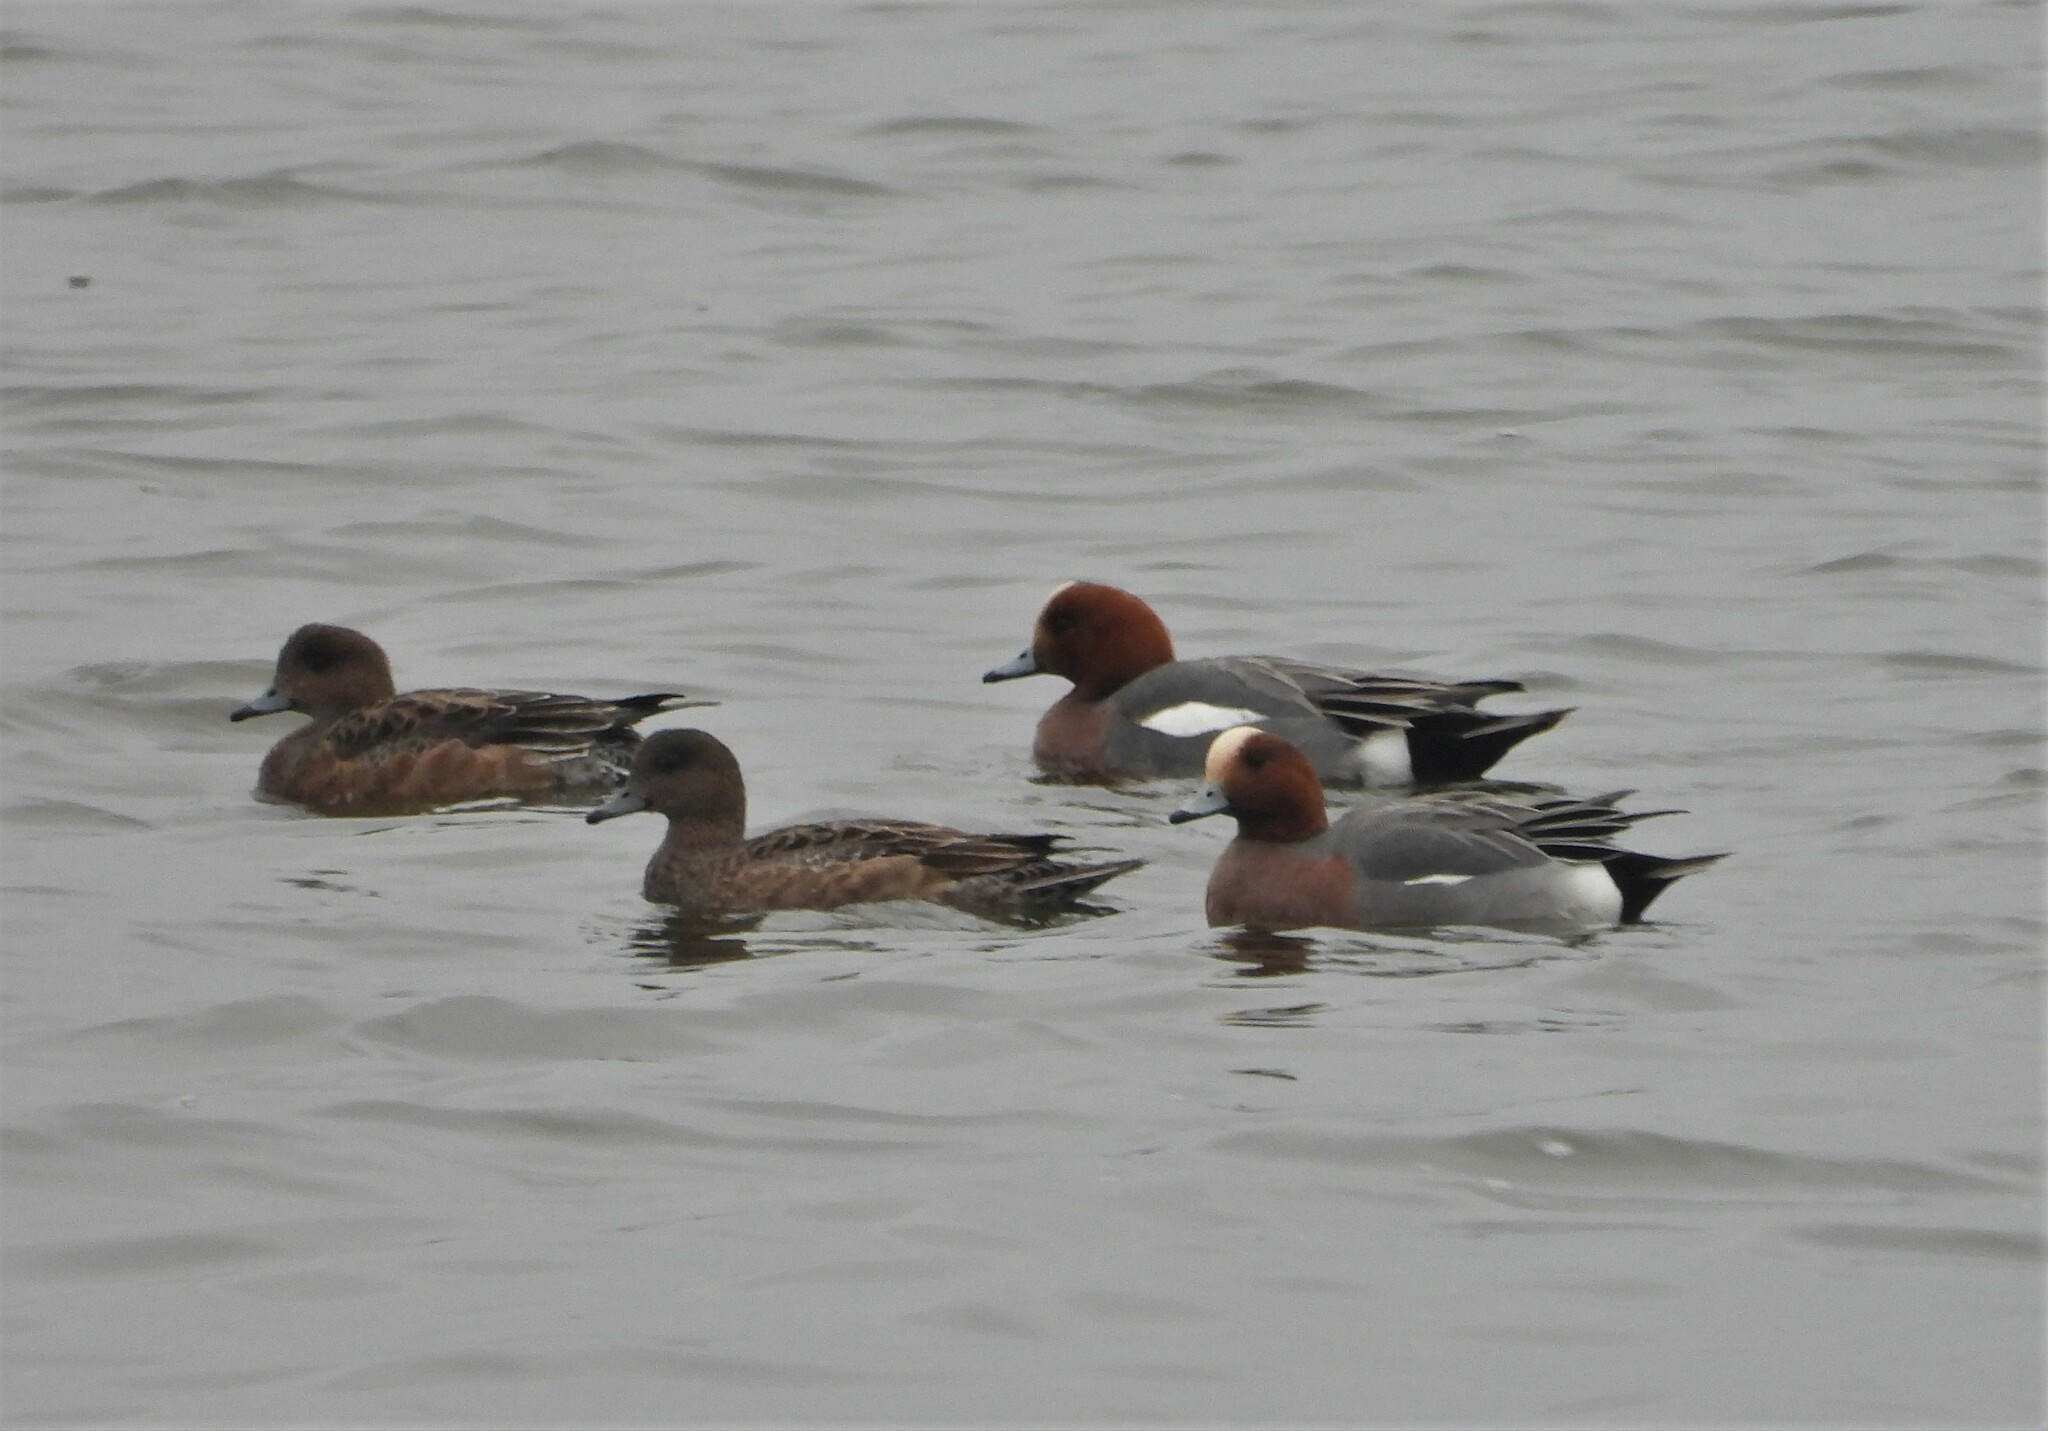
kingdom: Animalia
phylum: Chordata
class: Aves
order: Anseriformes
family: Anatidae
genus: Mareca
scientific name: Mareca penelope
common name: Eurasian wigeon
